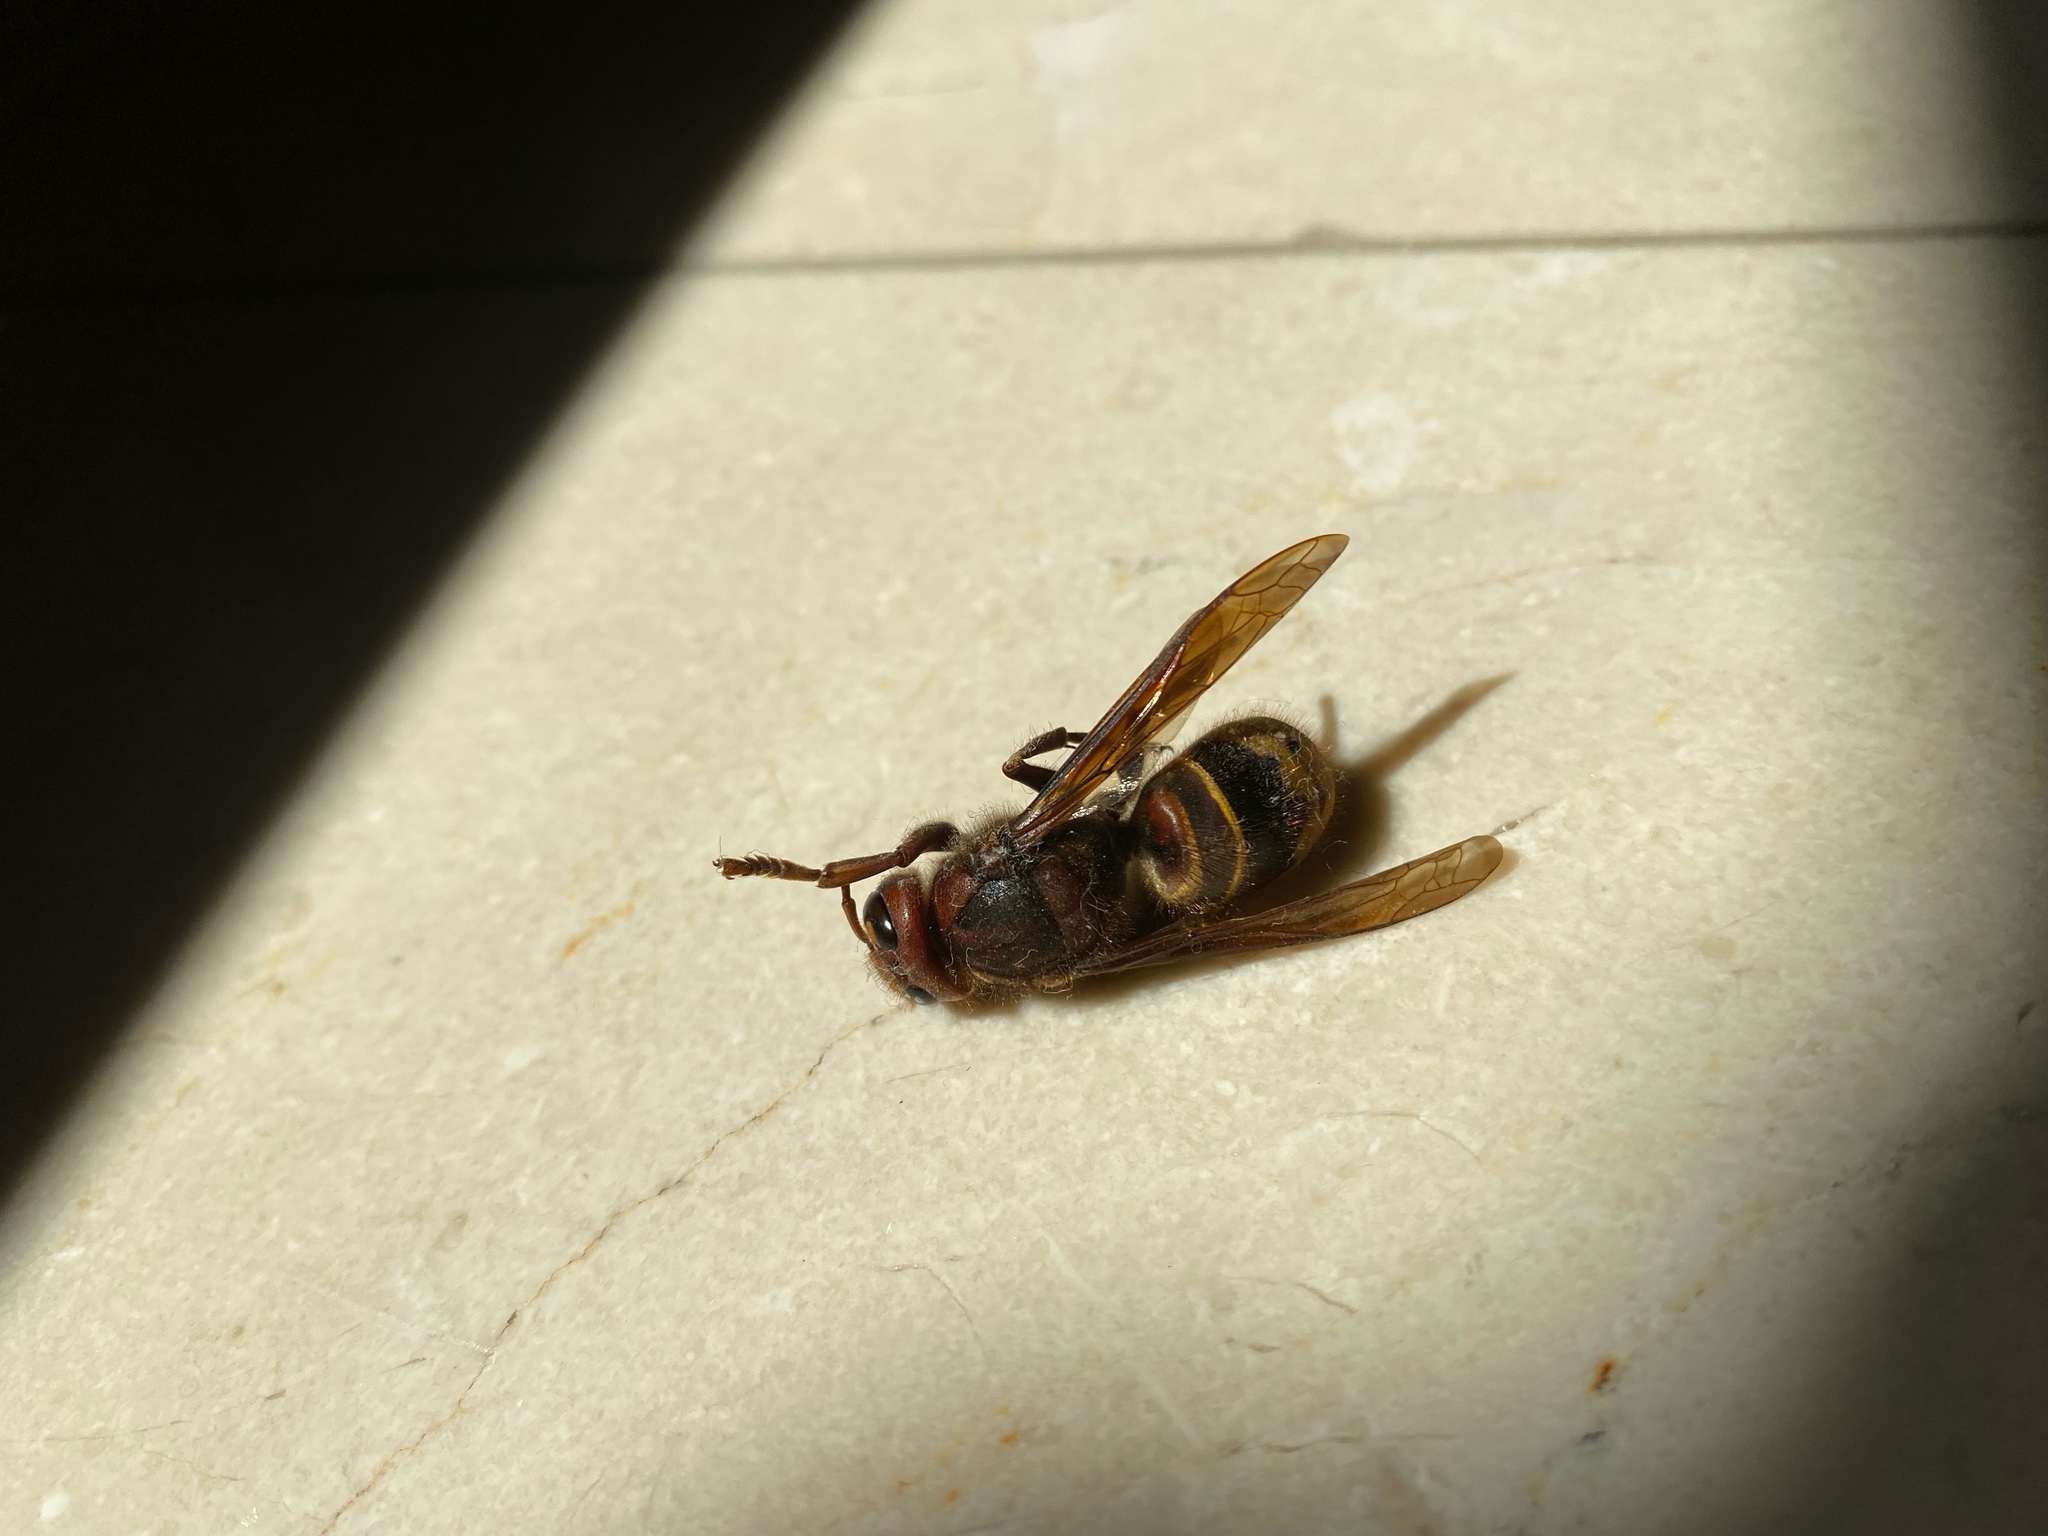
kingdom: Animalia
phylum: Arthropoda
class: Insecta
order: Hymenoptera
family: Vespidae
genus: Vespa
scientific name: Vespa crabro
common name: Hornet
